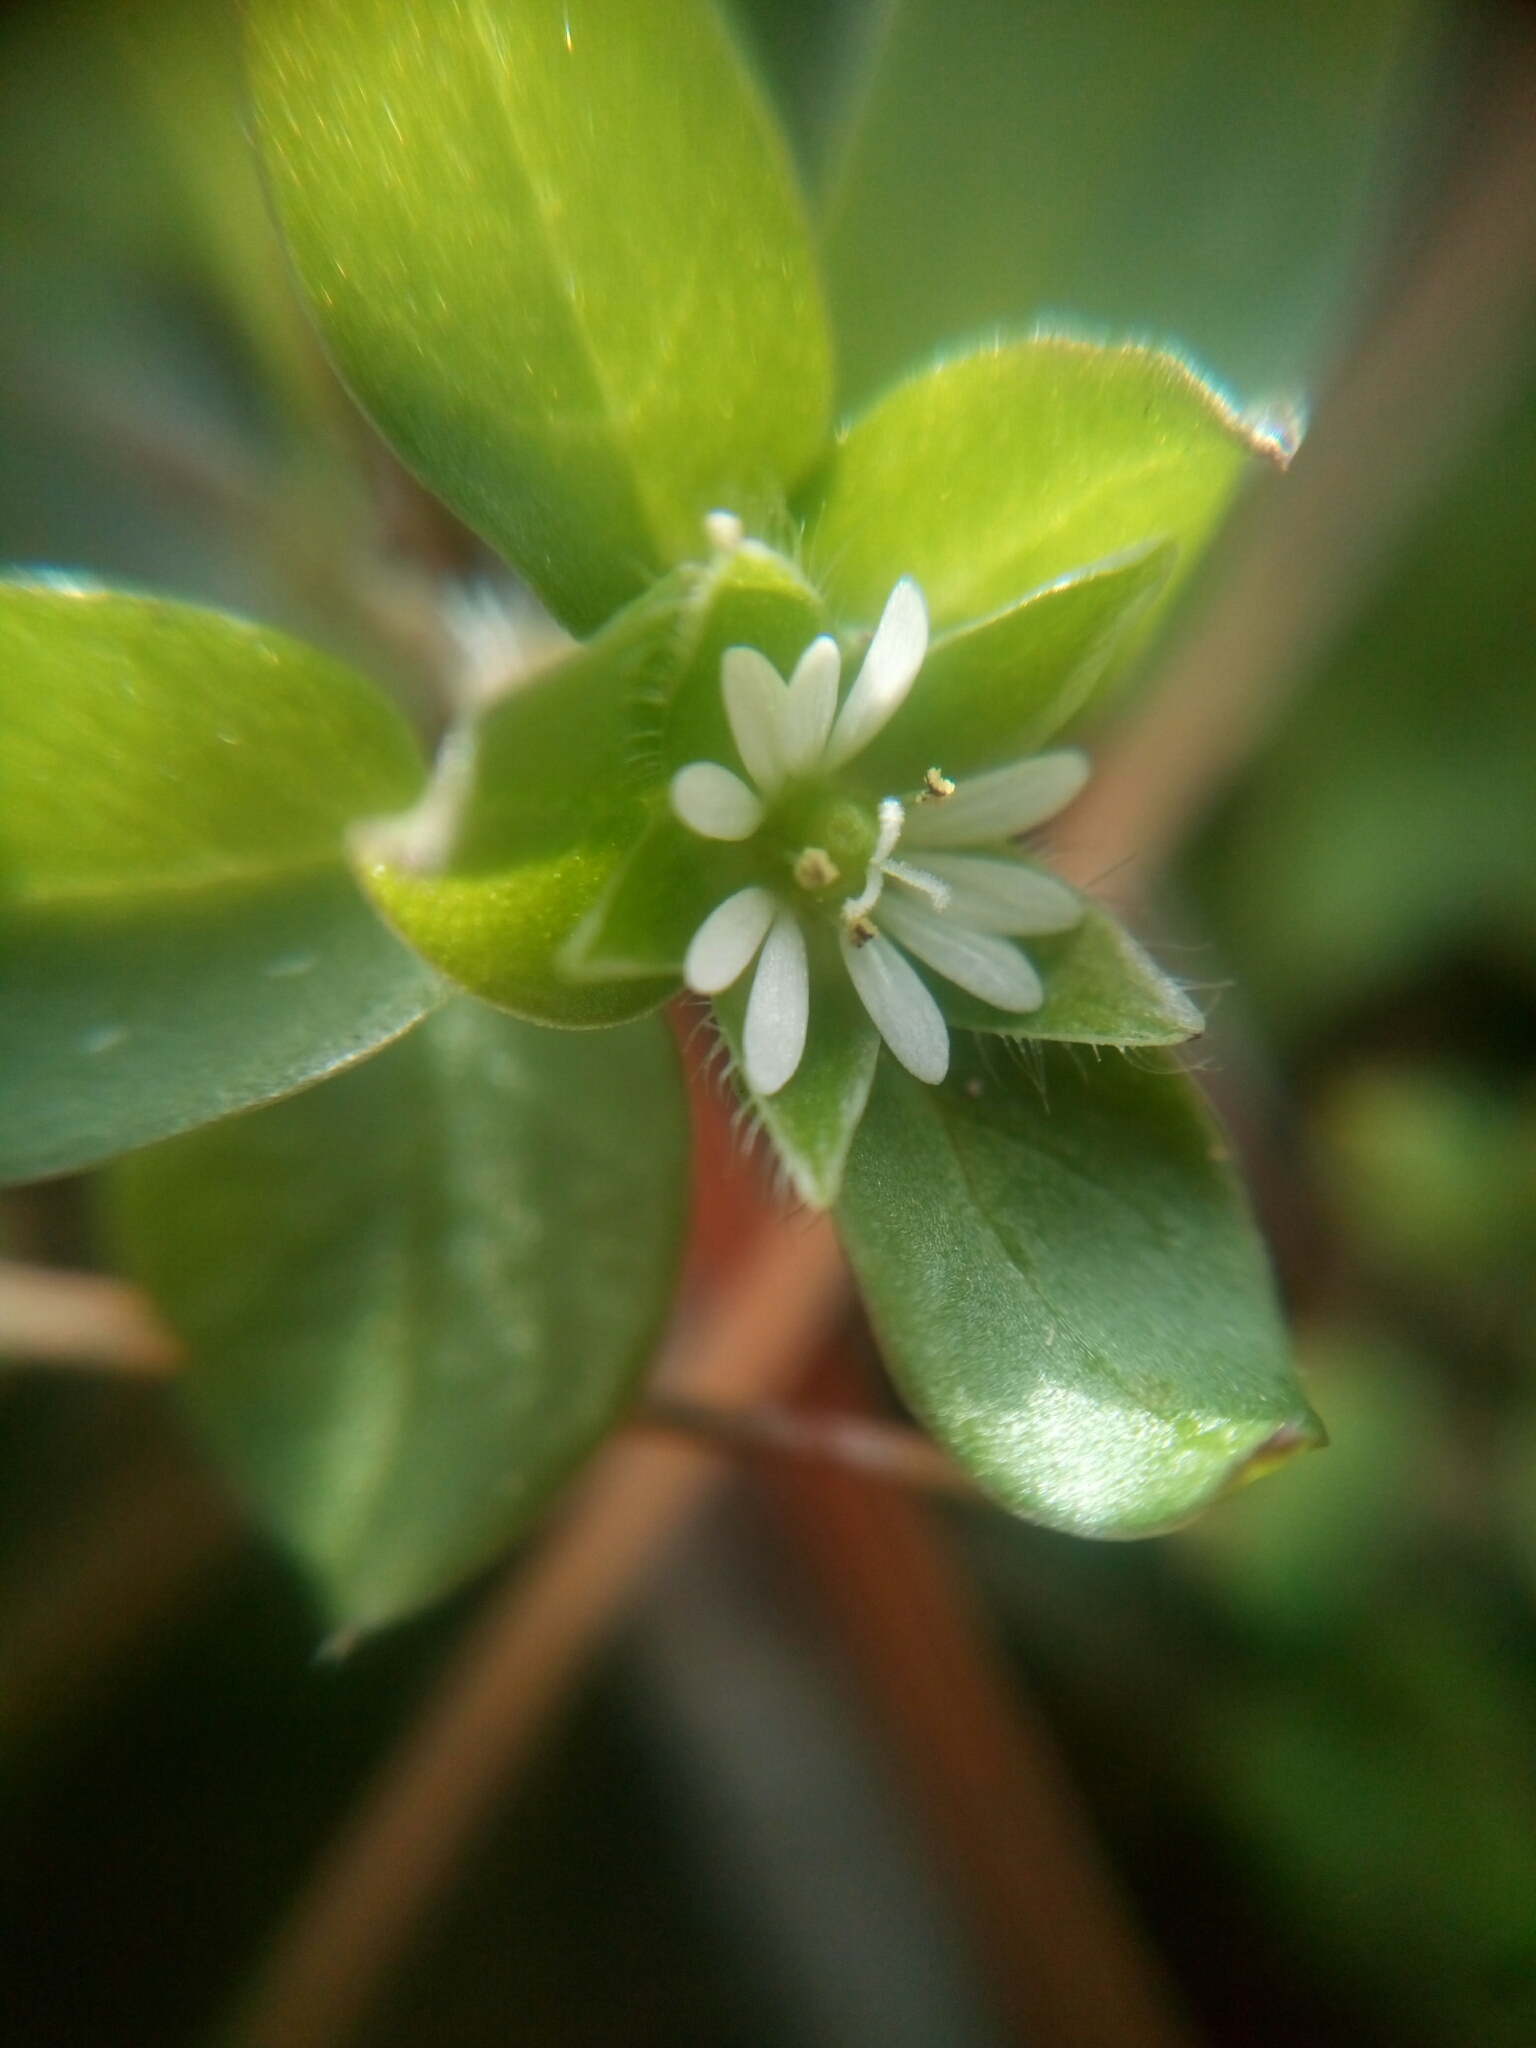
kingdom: Plantae
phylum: Tracheophyta
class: Magnoliopsida
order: Caryophyllales
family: Caryophyllaceae
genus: Stellaria
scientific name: Stellaria media
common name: Common chickweed
